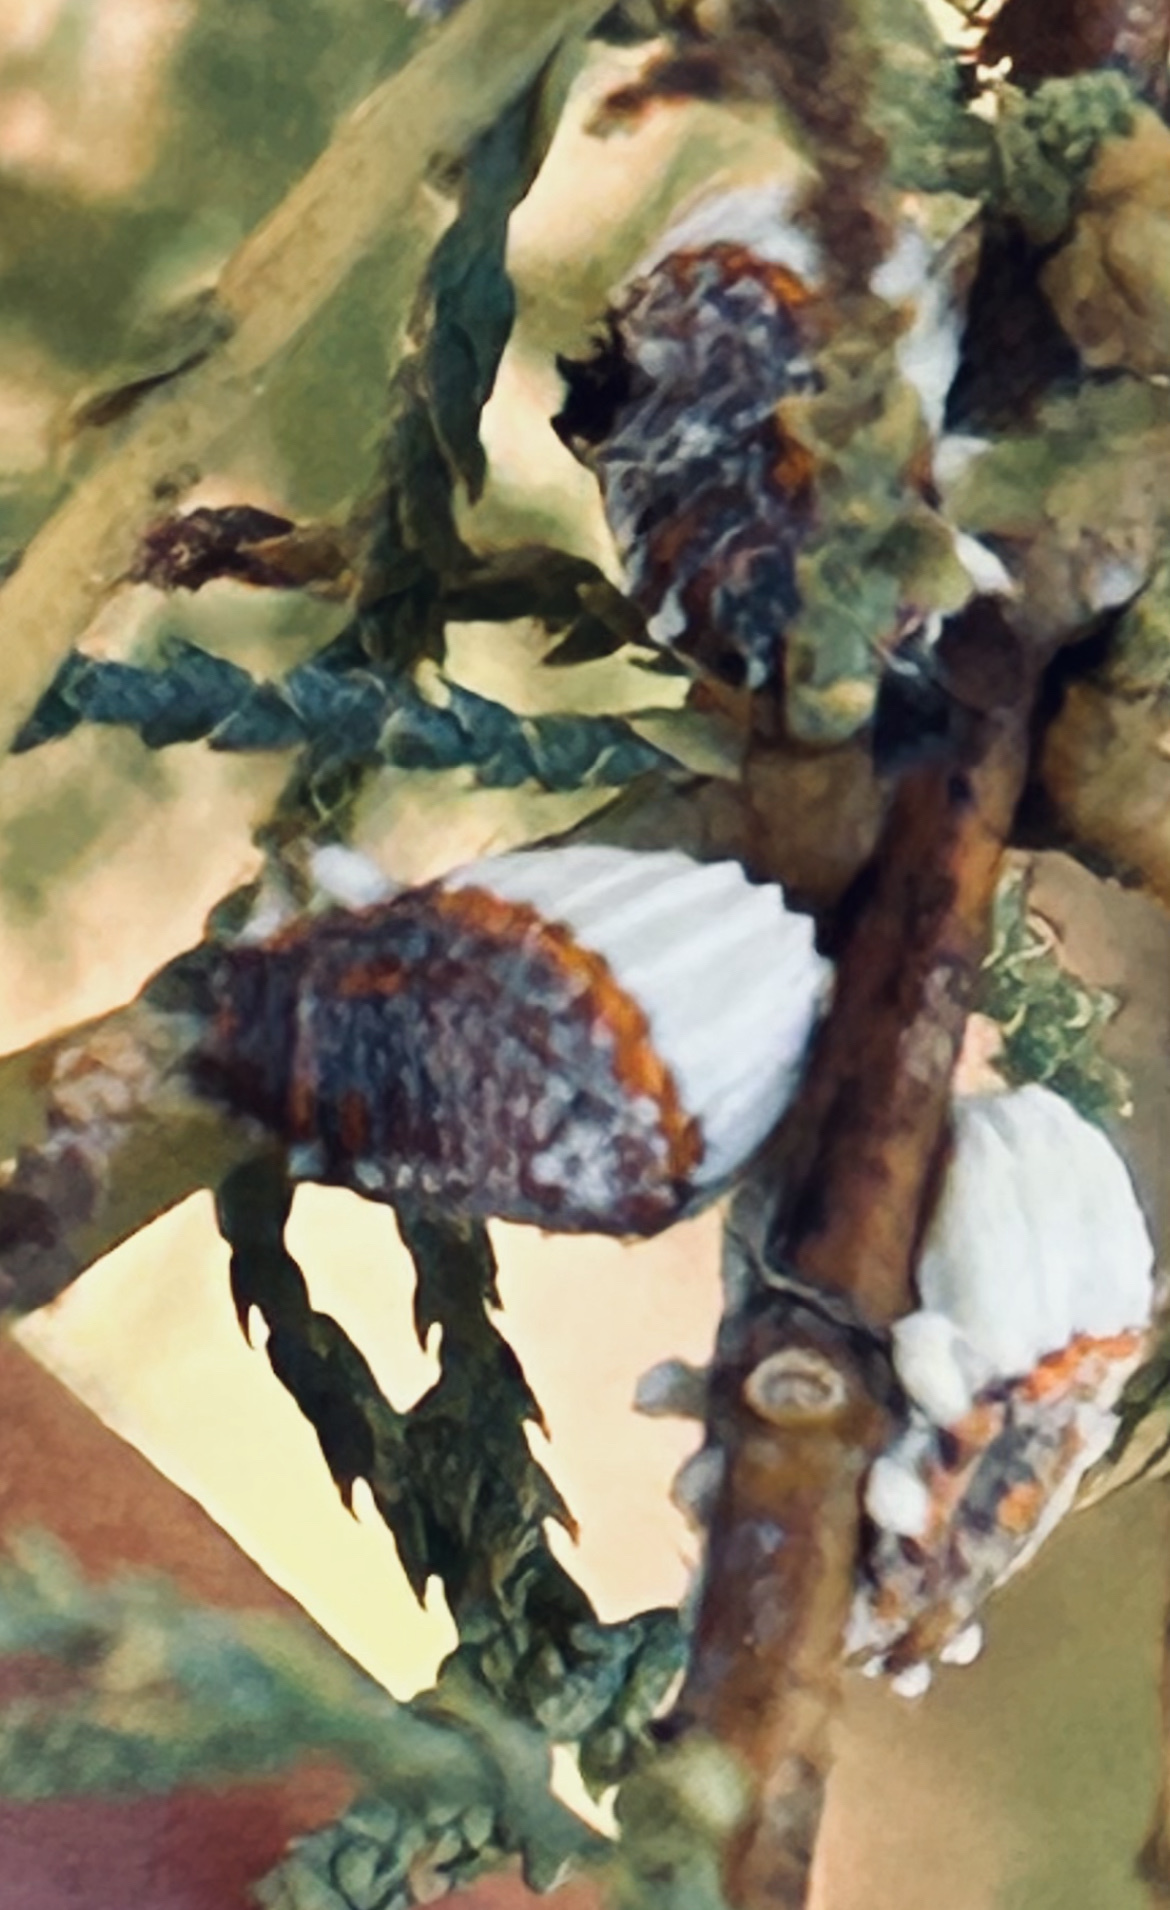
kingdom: Animalia
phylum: Arthropoda
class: Insecta
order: Hemiptera
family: Margarodidae
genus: Icerya
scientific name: Icerya purchasi
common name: Cottony cushion scale
